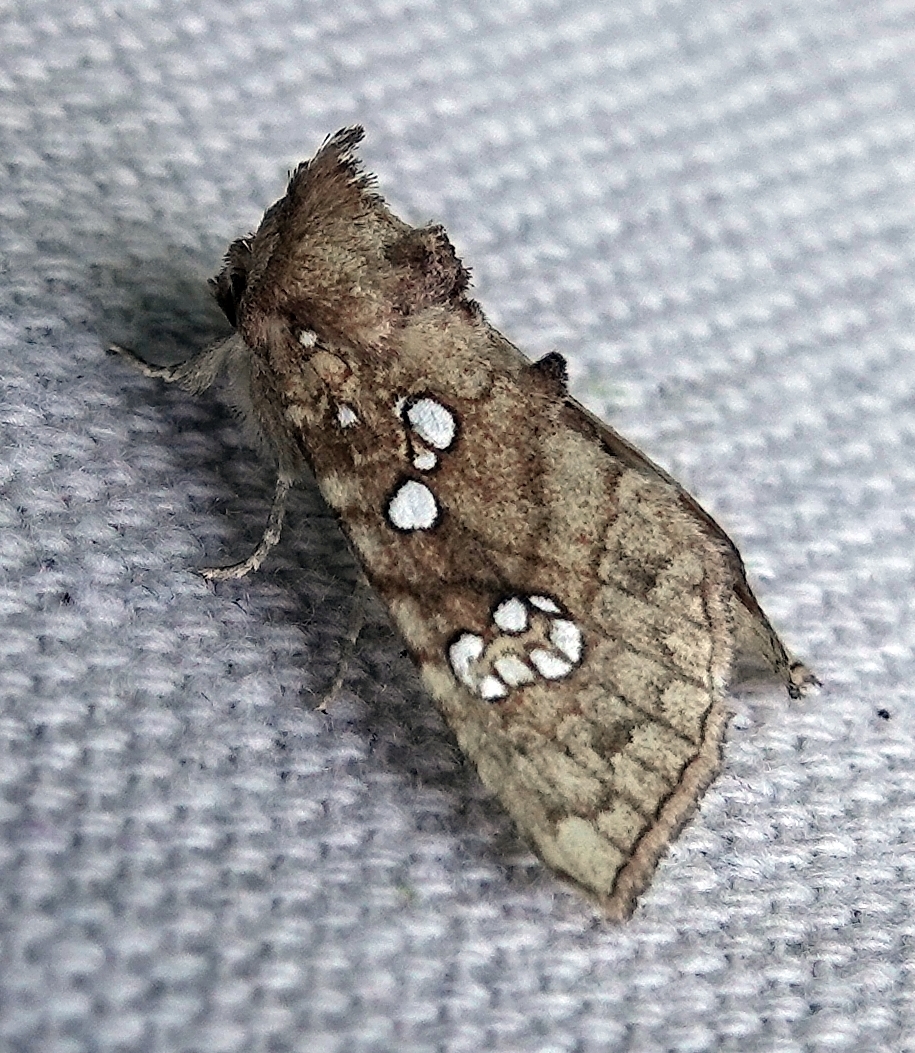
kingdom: Animalia
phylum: Arthropoda
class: Insecta
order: Lepidoptera
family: Noctuidae
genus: Papaipema
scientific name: Papaipema furcata
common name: Ash tip borer moth
